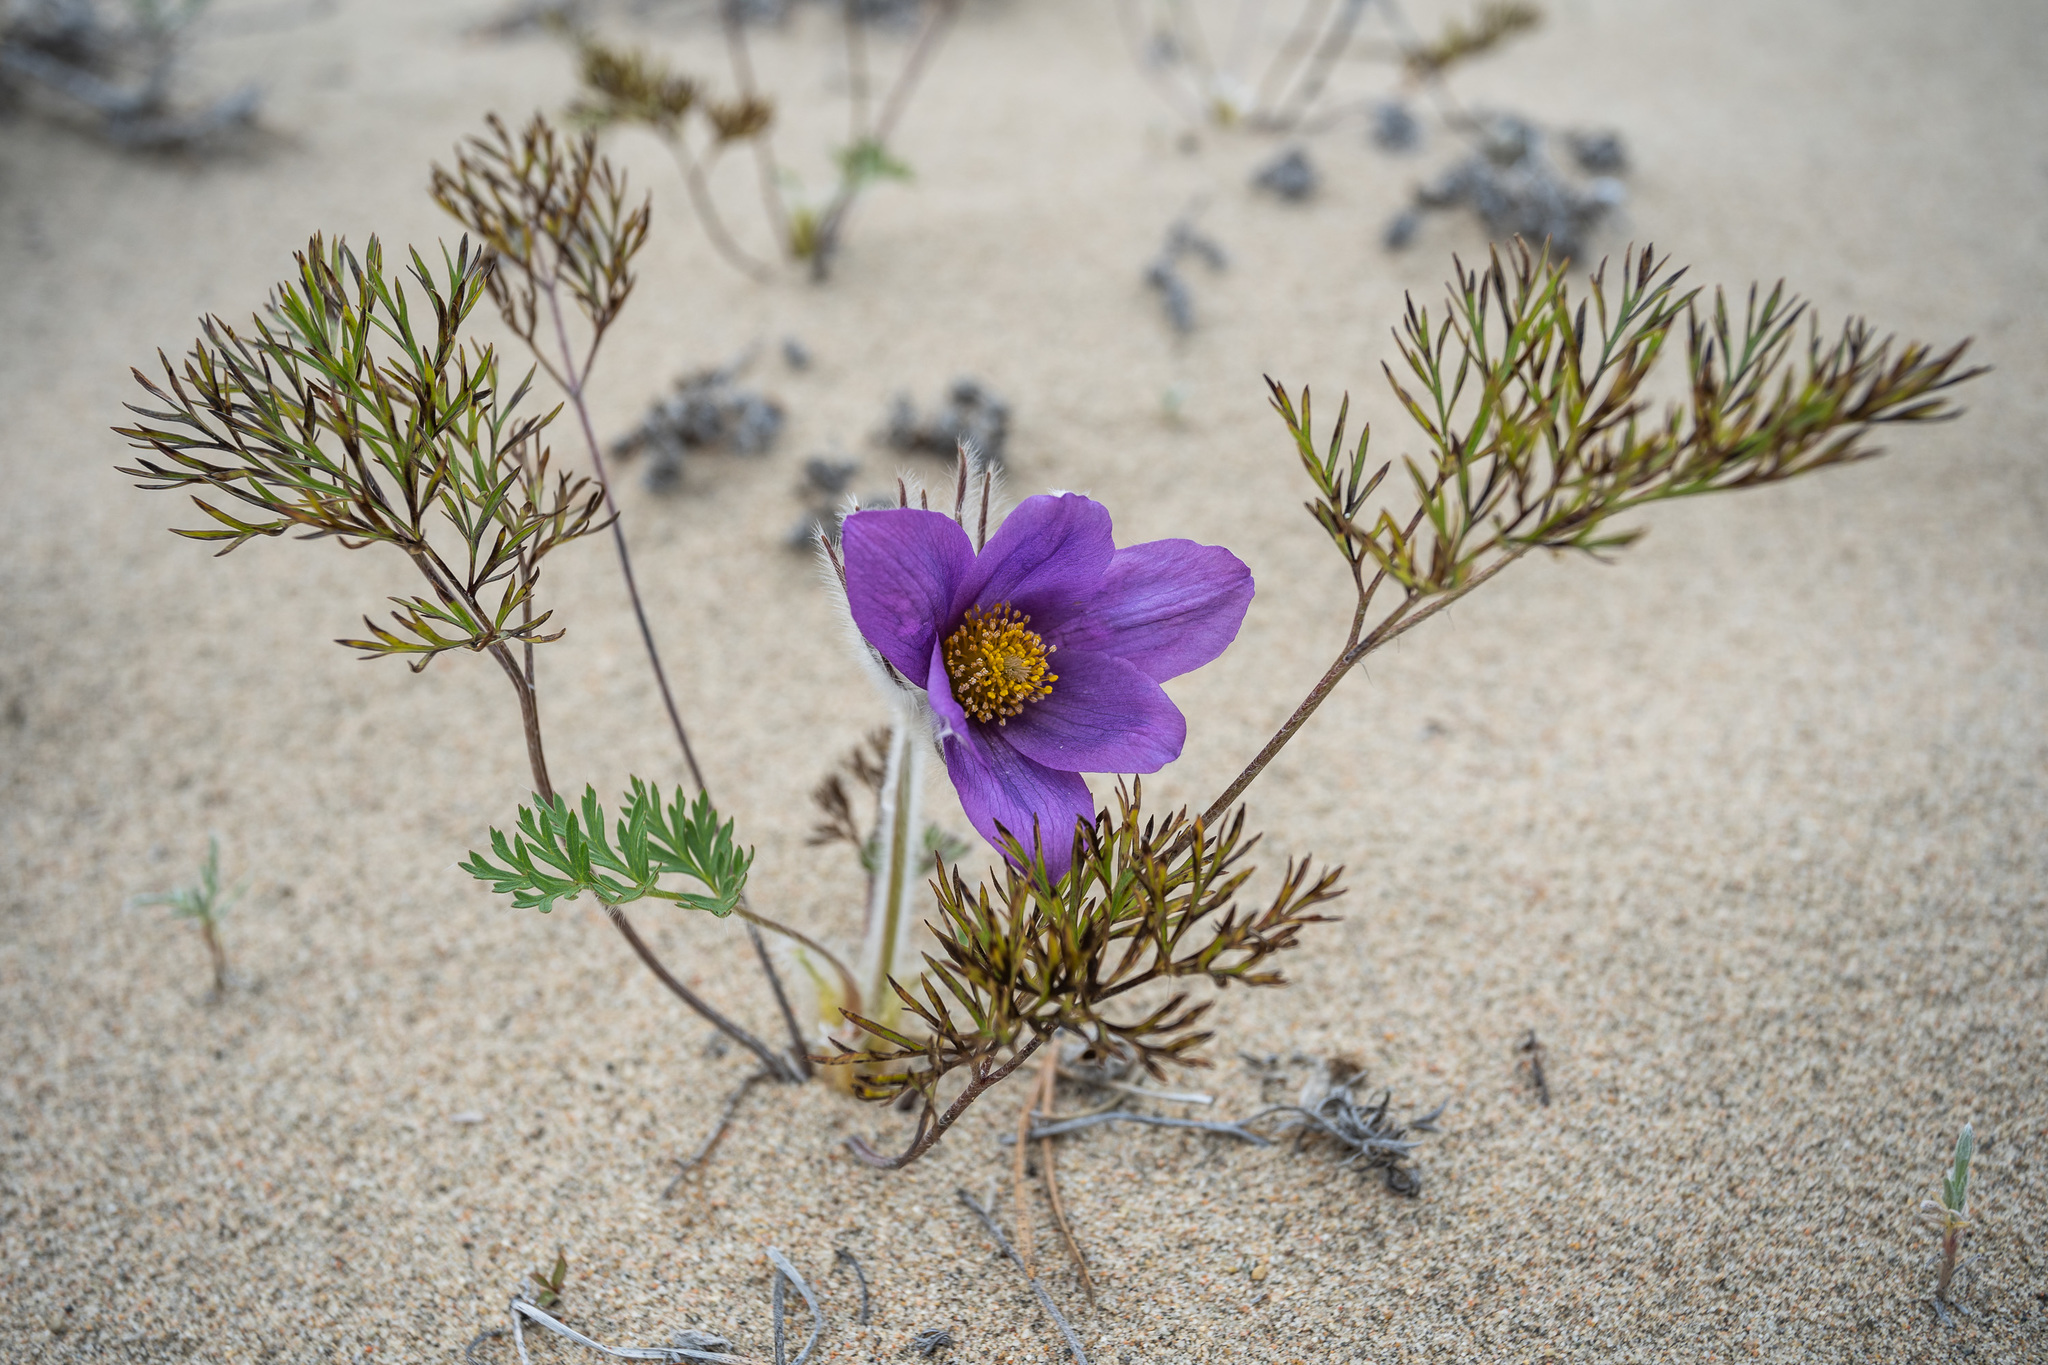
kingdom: Plantae
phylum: Tracheophyta
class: Magnoliopsida
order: Ranunculales
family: Ranunculaceae
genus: Pulsatilla
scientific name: Pulsatilla turczaninovii
